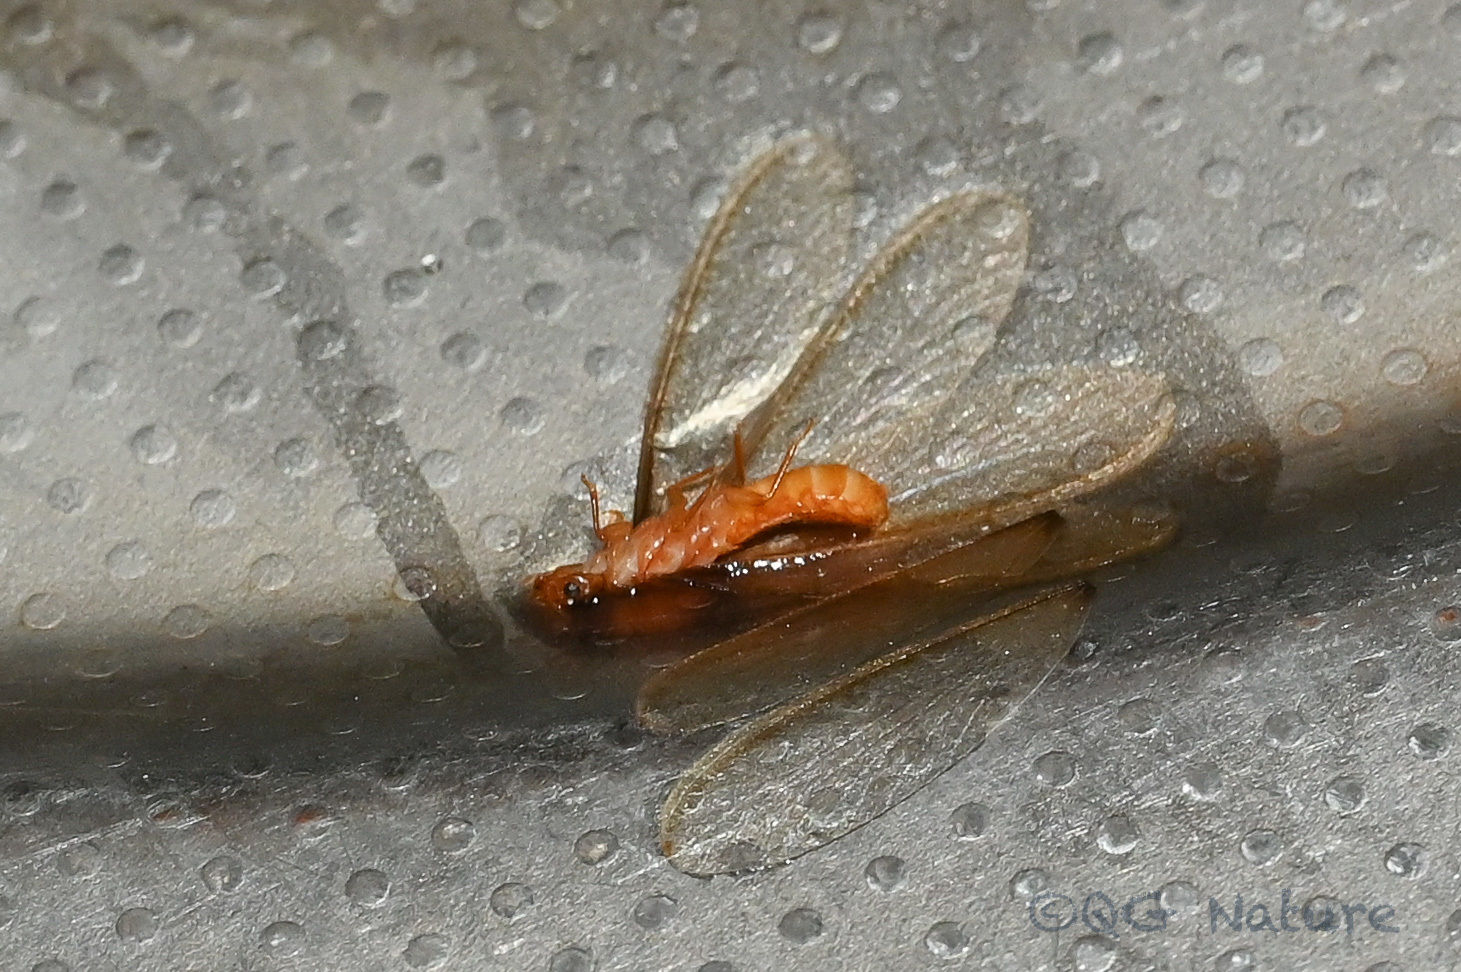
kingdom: Animalia
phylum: Arthropoda
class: Insecta
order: Blattodea
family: Rhinotermitidae
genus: Coptotermes
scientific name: Coptotermes formosanus
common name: Formosan termite
